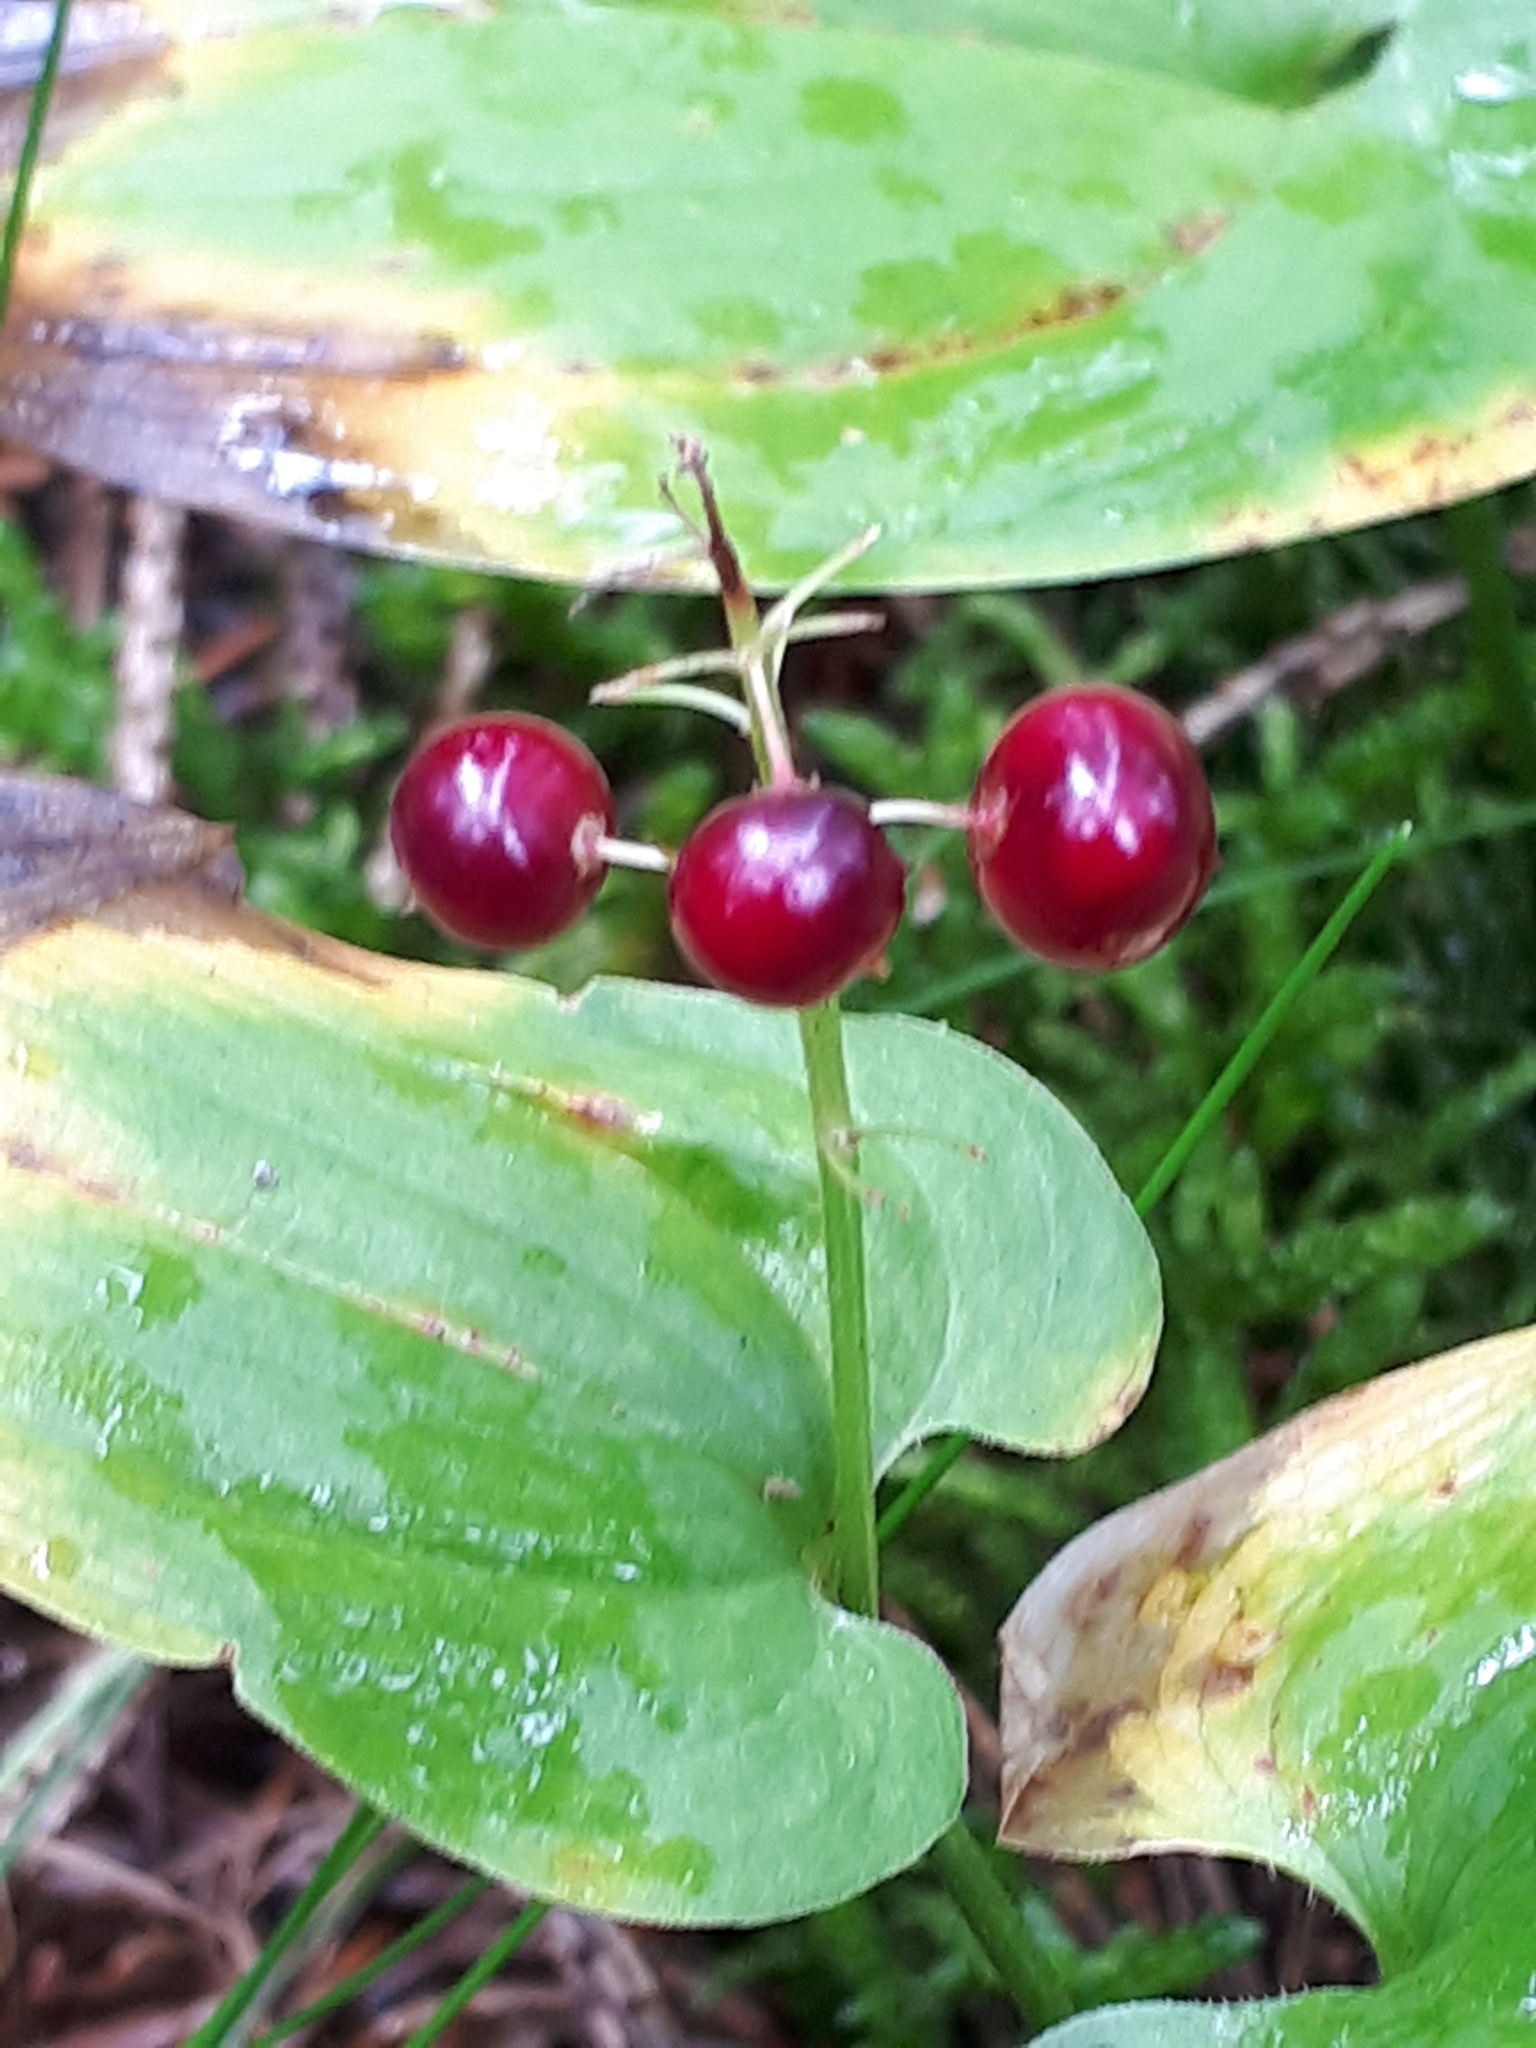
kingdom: Plantae
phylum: Tracheophyta
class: Liliopsida
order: Asparagales
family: Asparagaceae
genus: Maianthemum
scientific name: Maianthemum bifolium
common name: May lily
